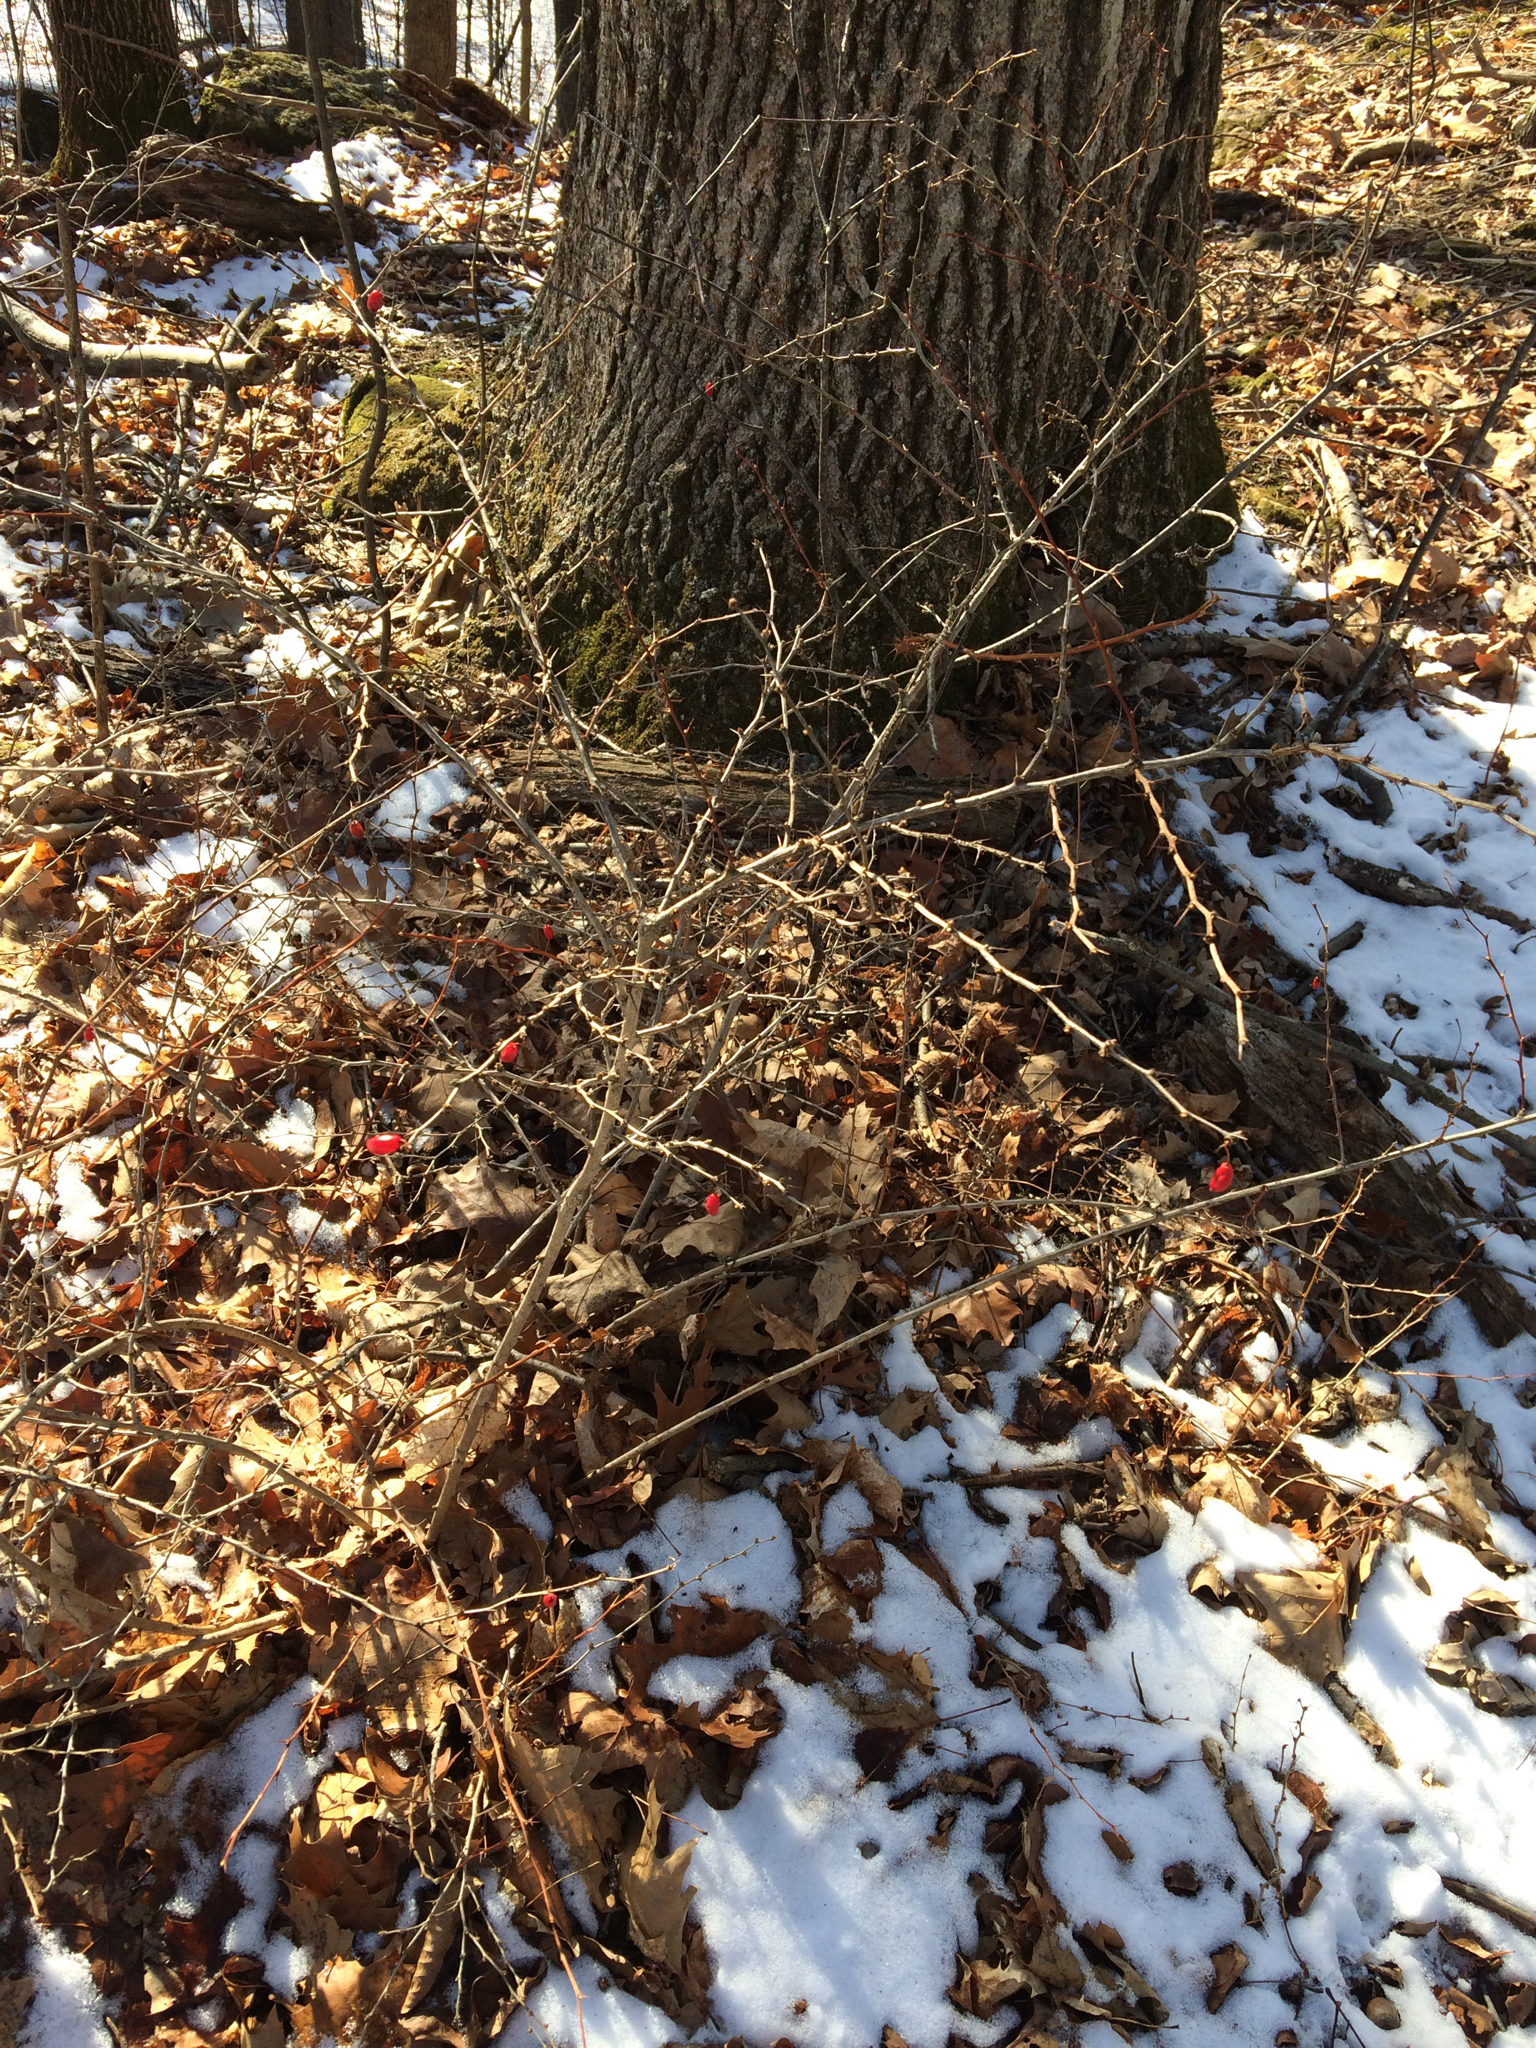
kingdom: Plantae
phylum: Tracheophyta
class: Magnoliopsida
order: Ranunculales
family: Berberidaceae
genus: Berberis
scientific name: Berberis thunbergii
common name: Japanese barberry
